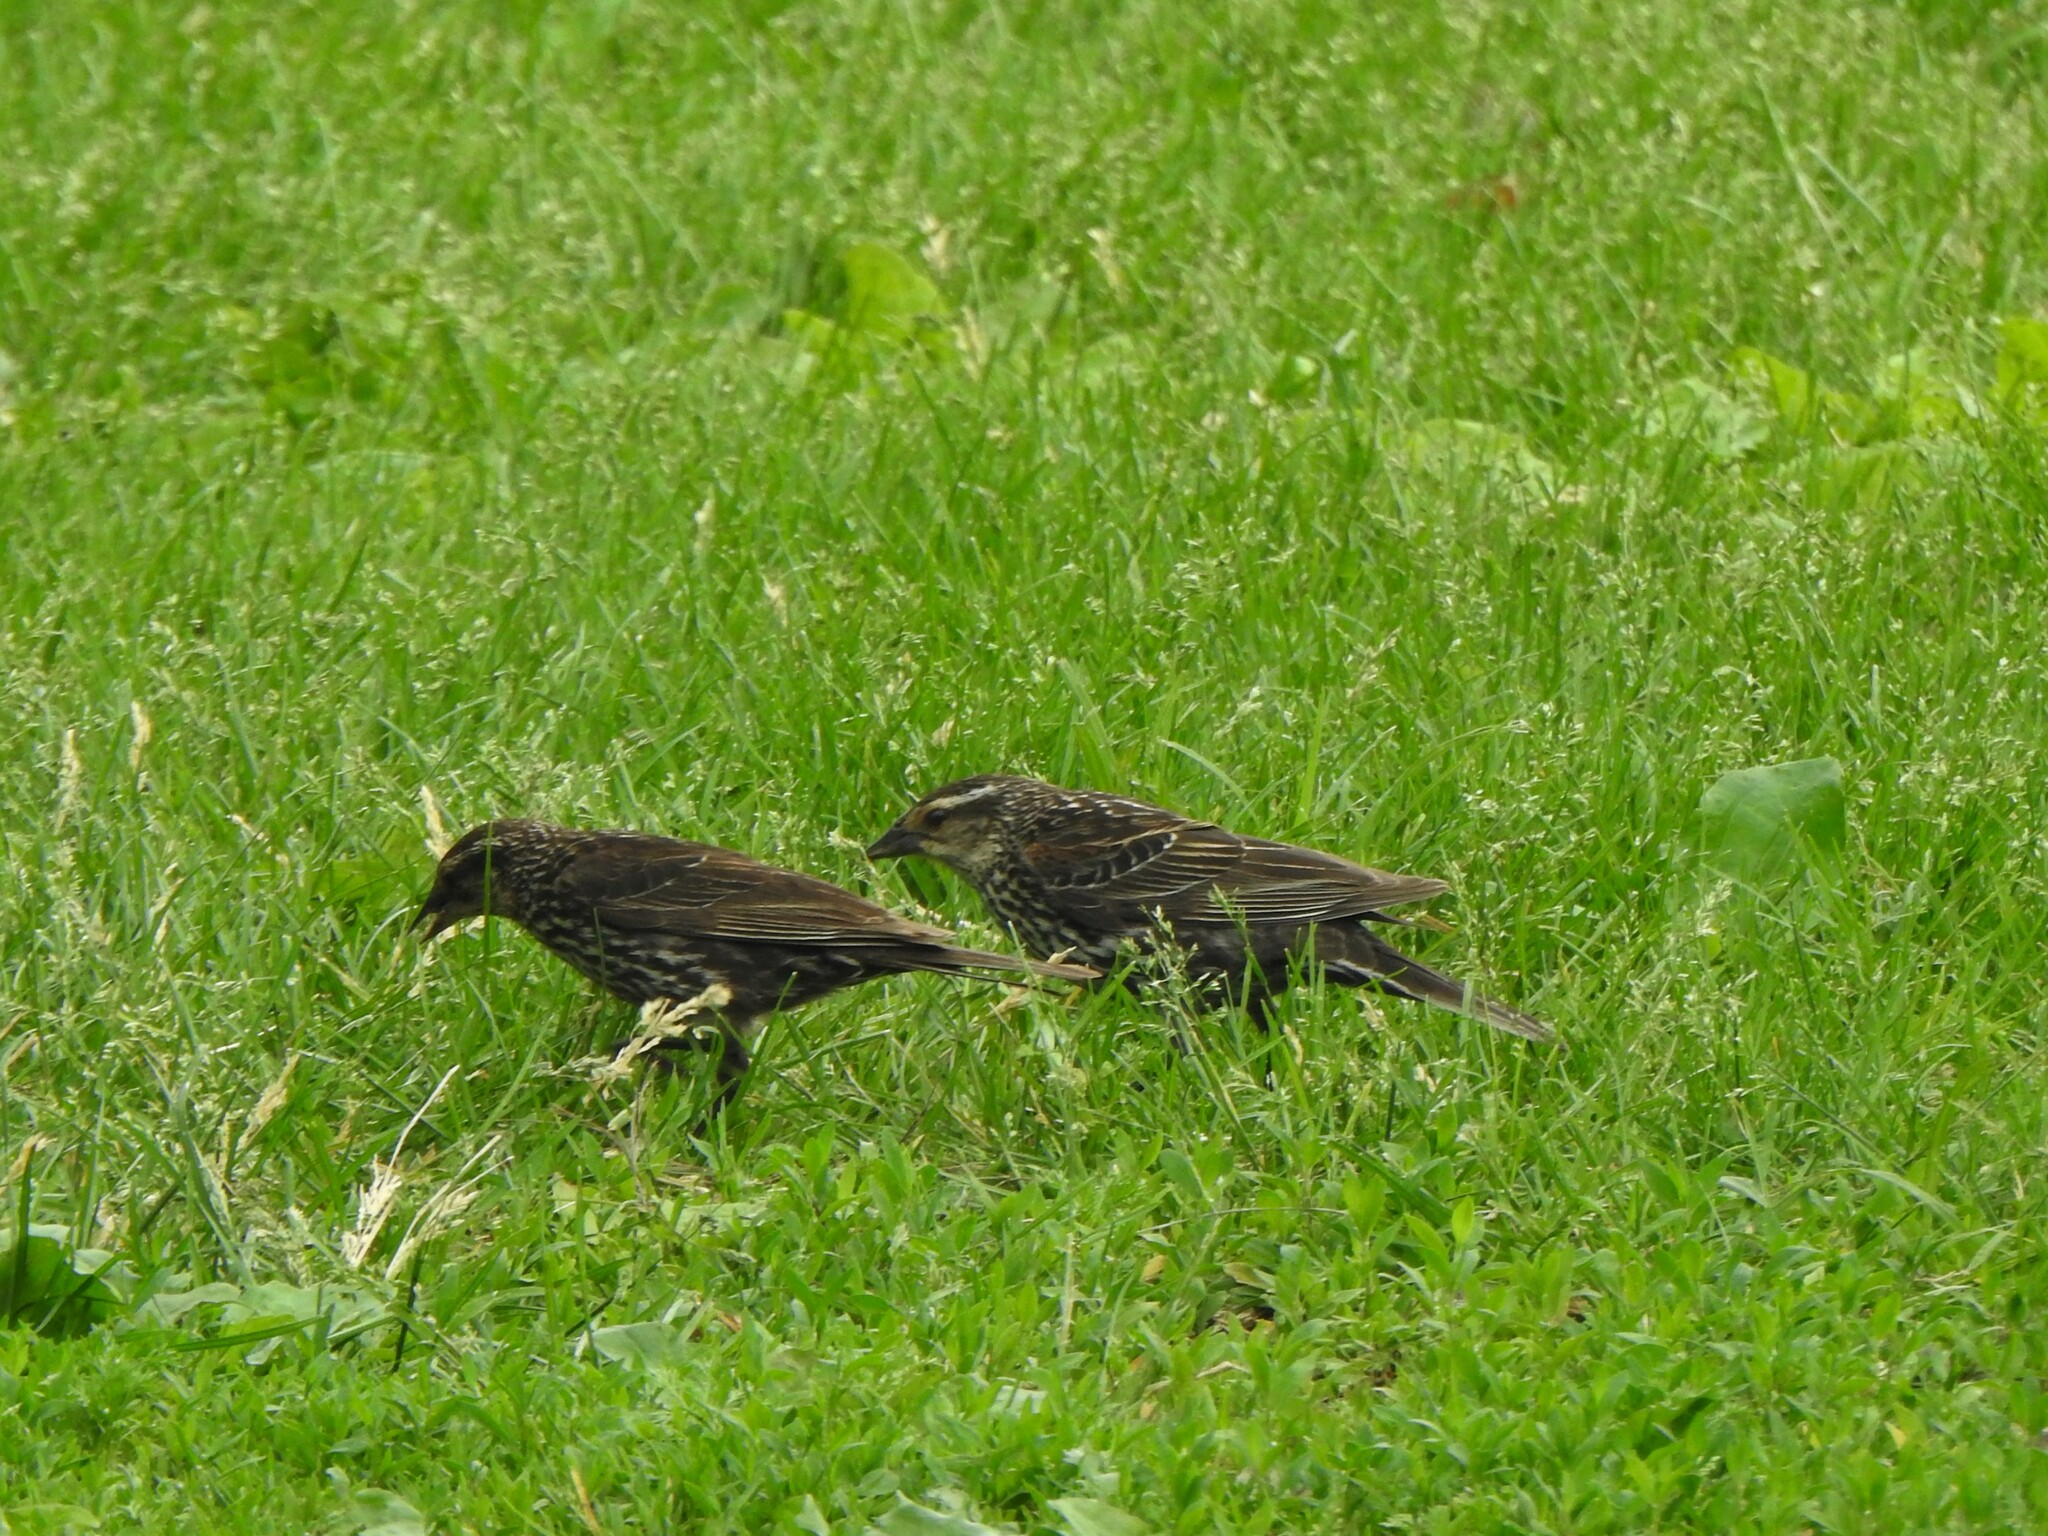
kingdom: Animalia
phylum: Chordata
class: Aves
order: Passeriformes
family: Icteridae
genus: Agelaius
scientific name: Agelaius phoeniceus
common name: Red-winged blackbird
